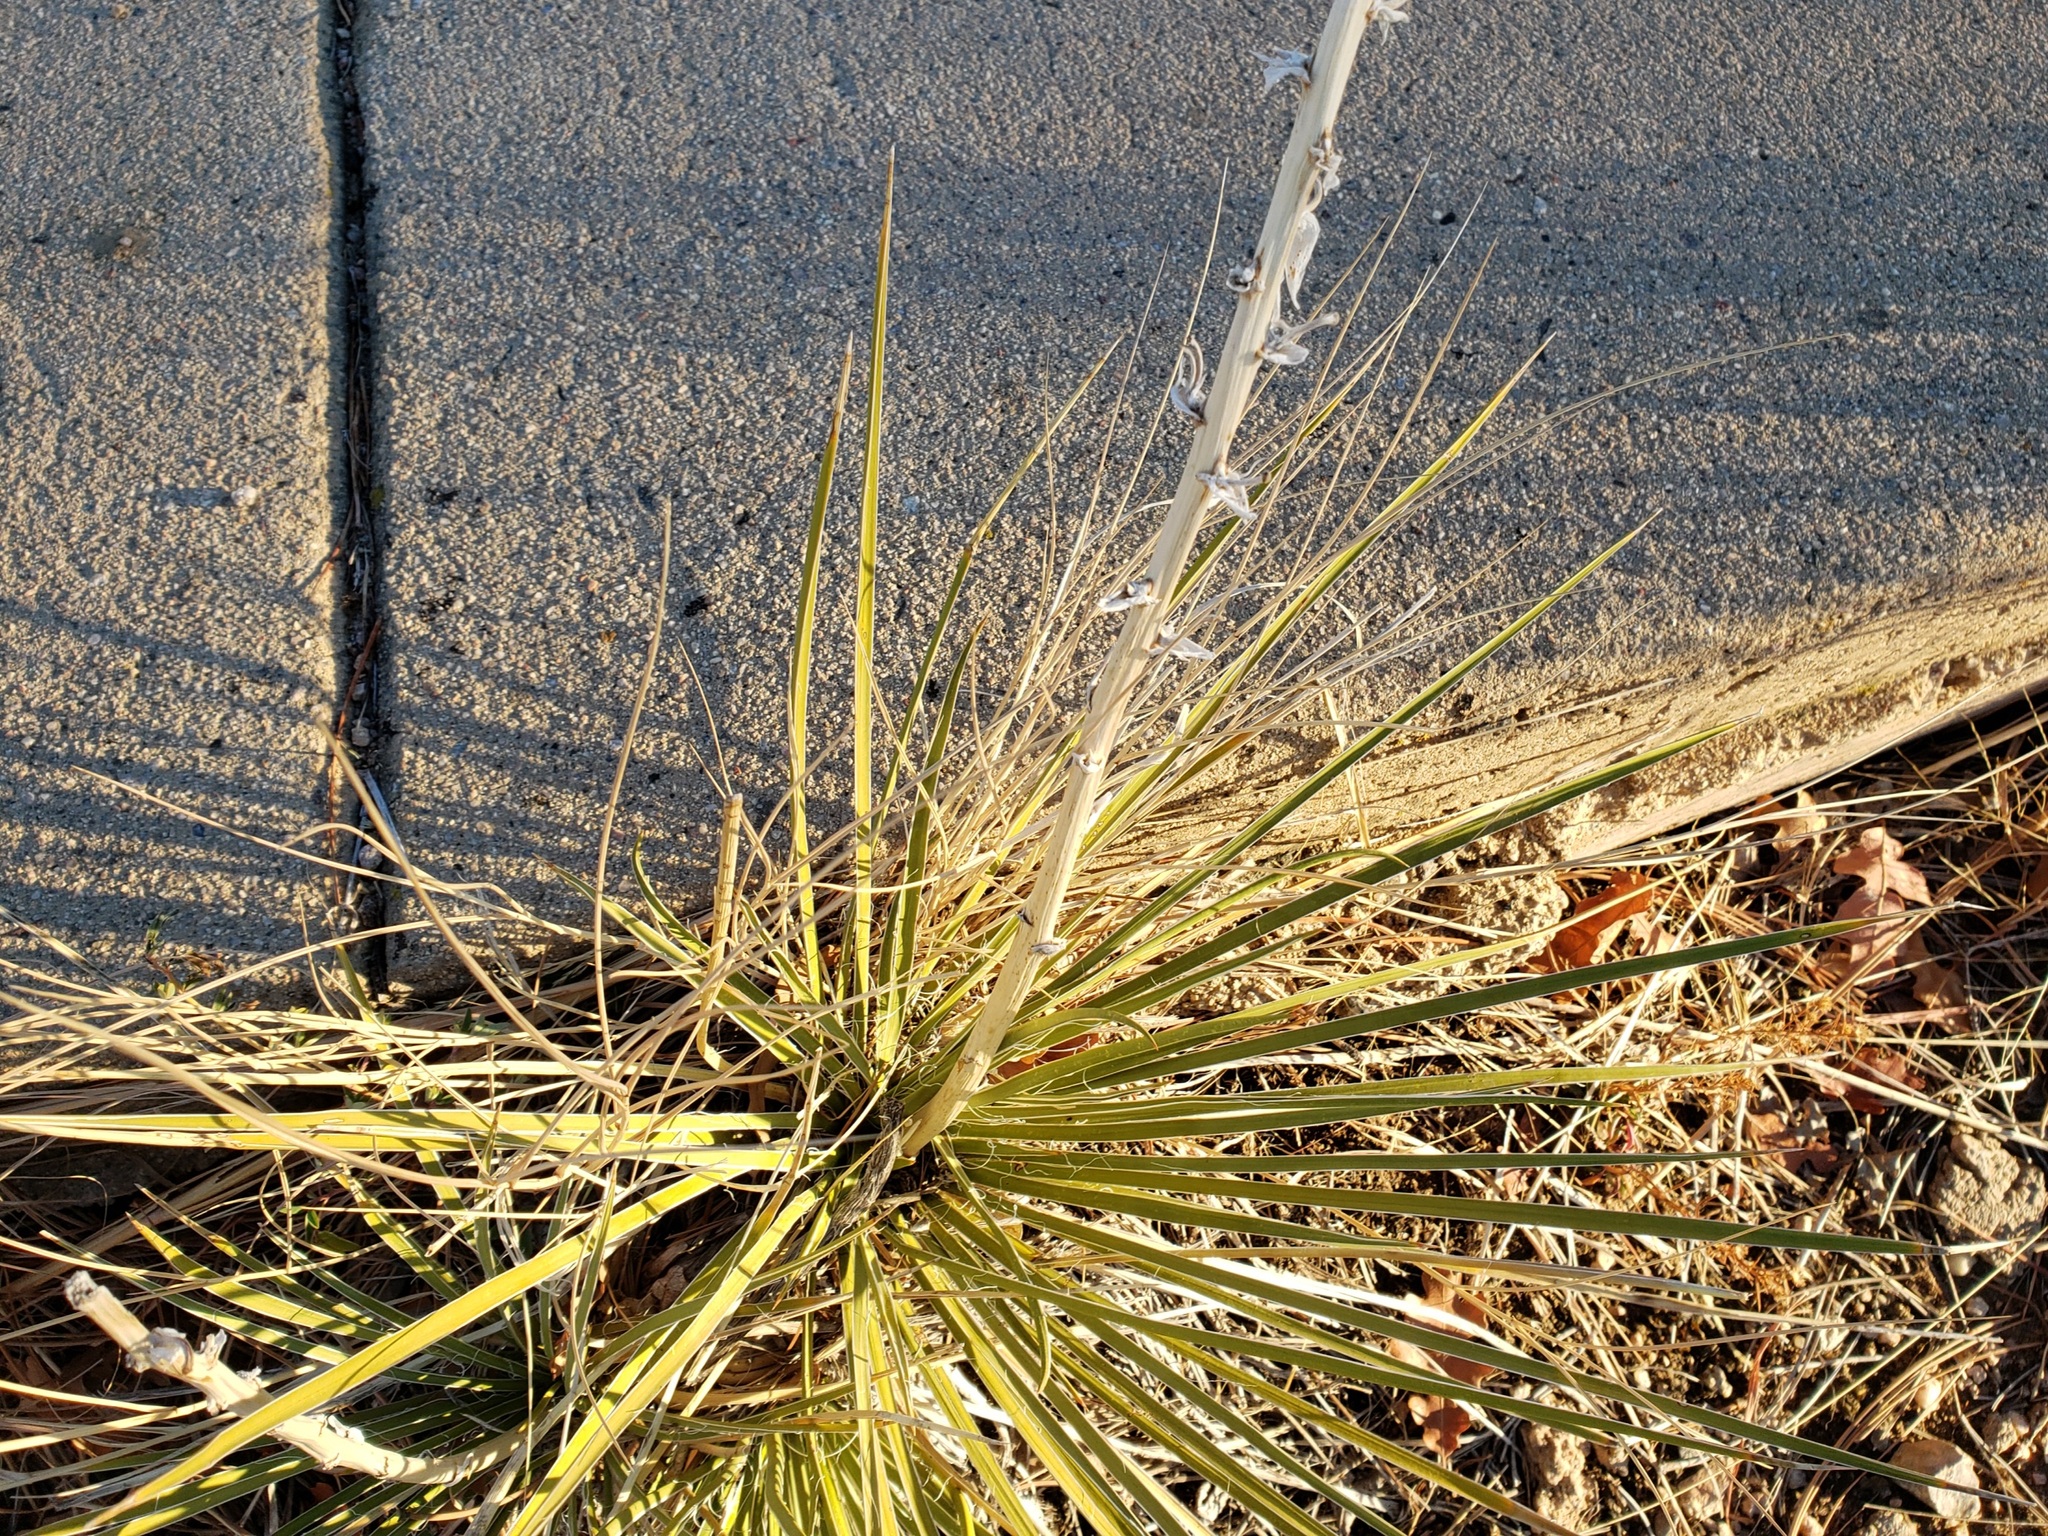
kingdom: Plantae
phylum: Tracheophyta
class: Liliopsida
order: Asparagales
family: Asparagaceae
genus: Yucca
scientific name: Yucca glauca
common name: Great plains yucca
